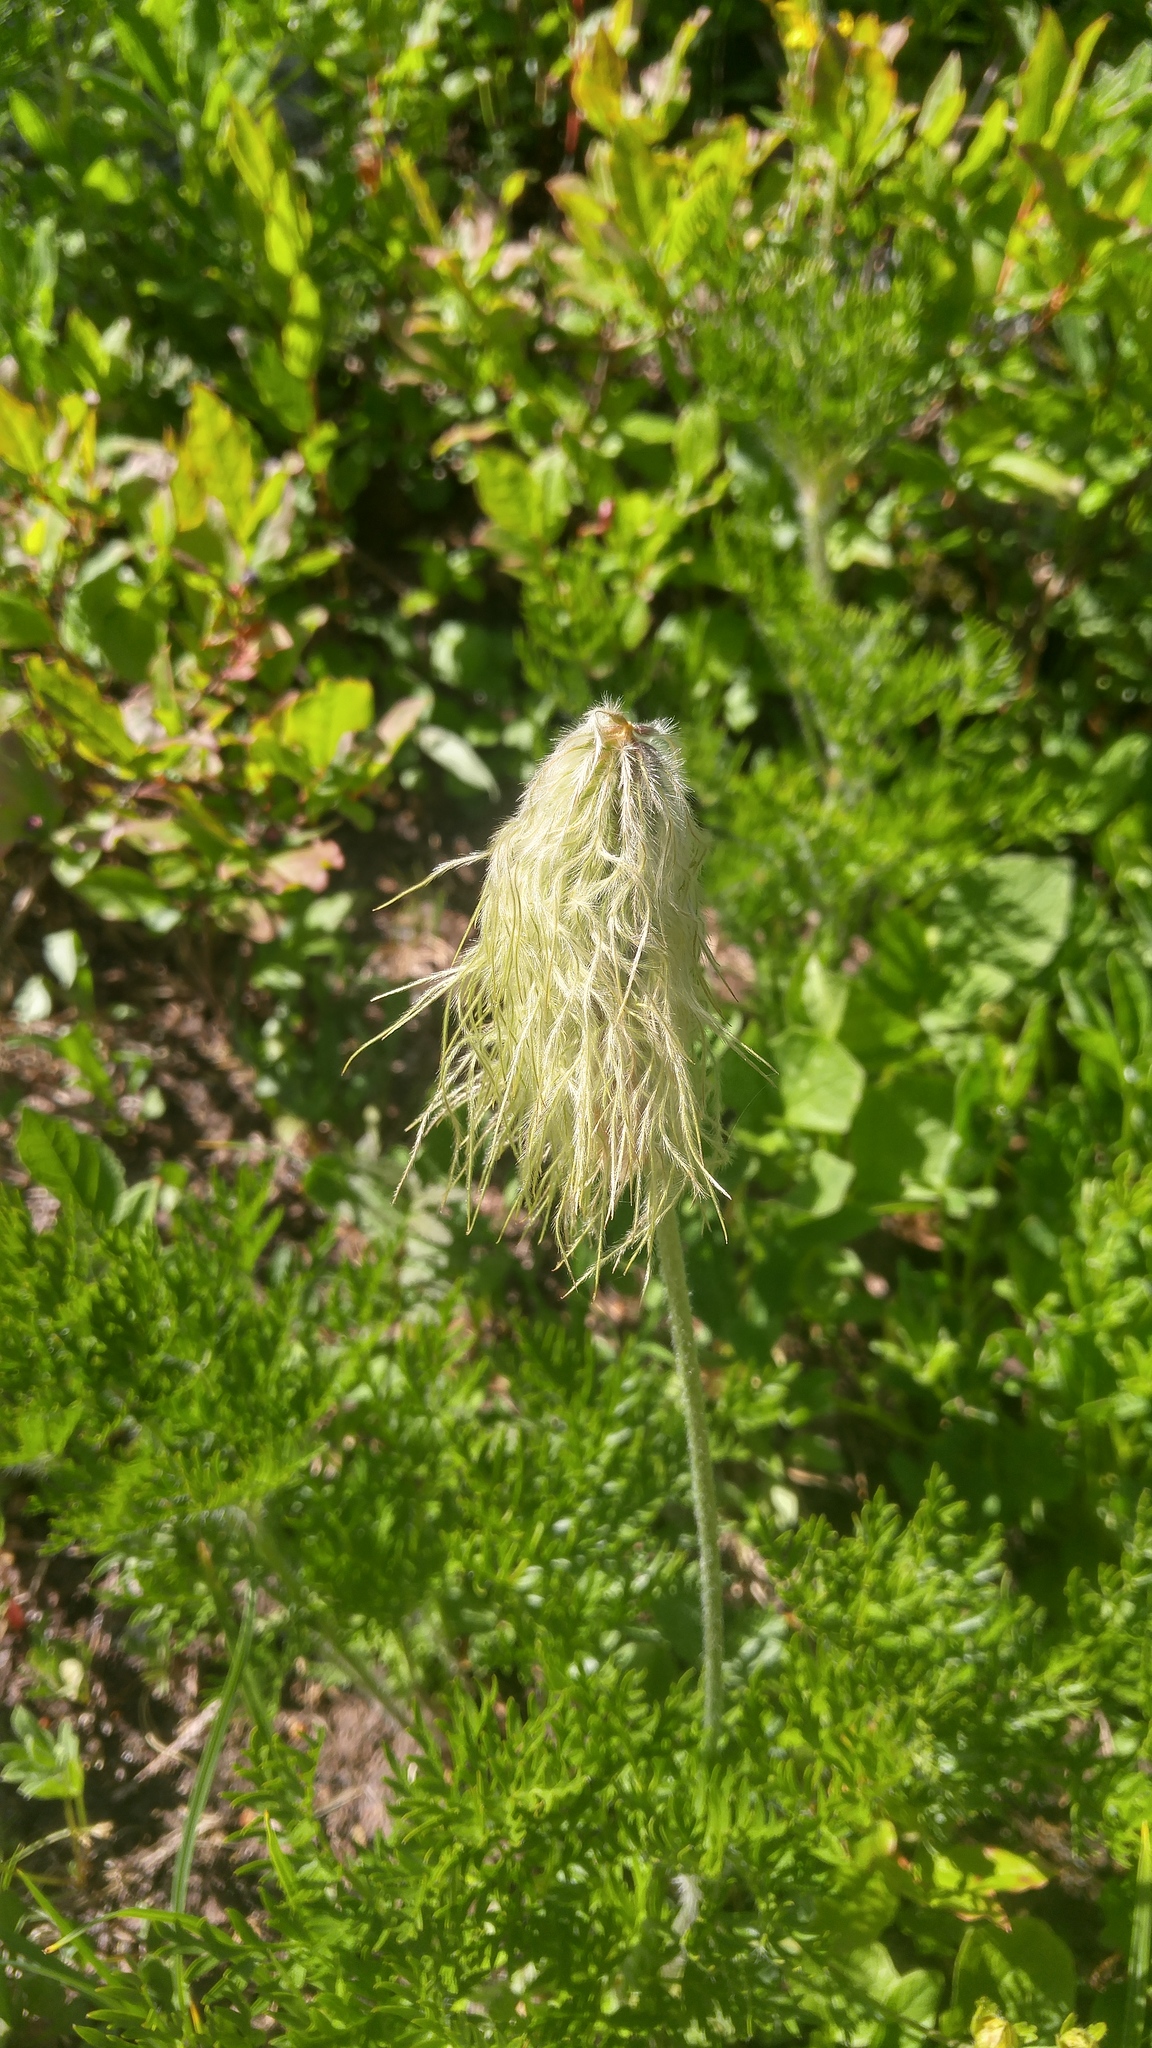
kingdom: Plantae
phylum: Tracheophyta
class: Magnoliopsida
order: Ranunculales
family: Ranunculaceae
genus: Pulsatilla
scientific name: Pulsatilla occidentalis
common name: Mountain pasqueflower
